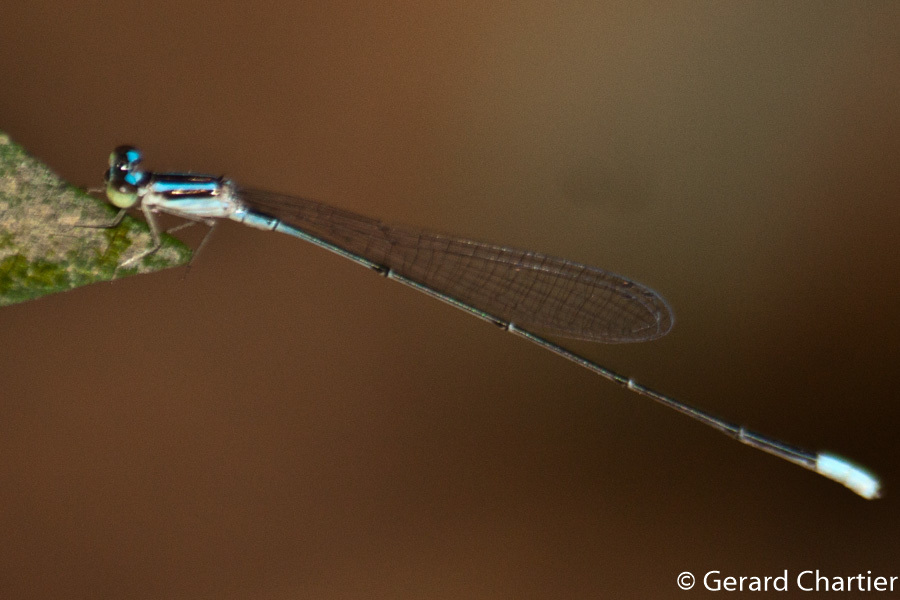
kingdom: Animalia
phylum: Arthropoda
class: Insecta
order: Odonata
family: Coenagrionidae
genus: Aciagrion
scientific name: Aciagrion hisopa
